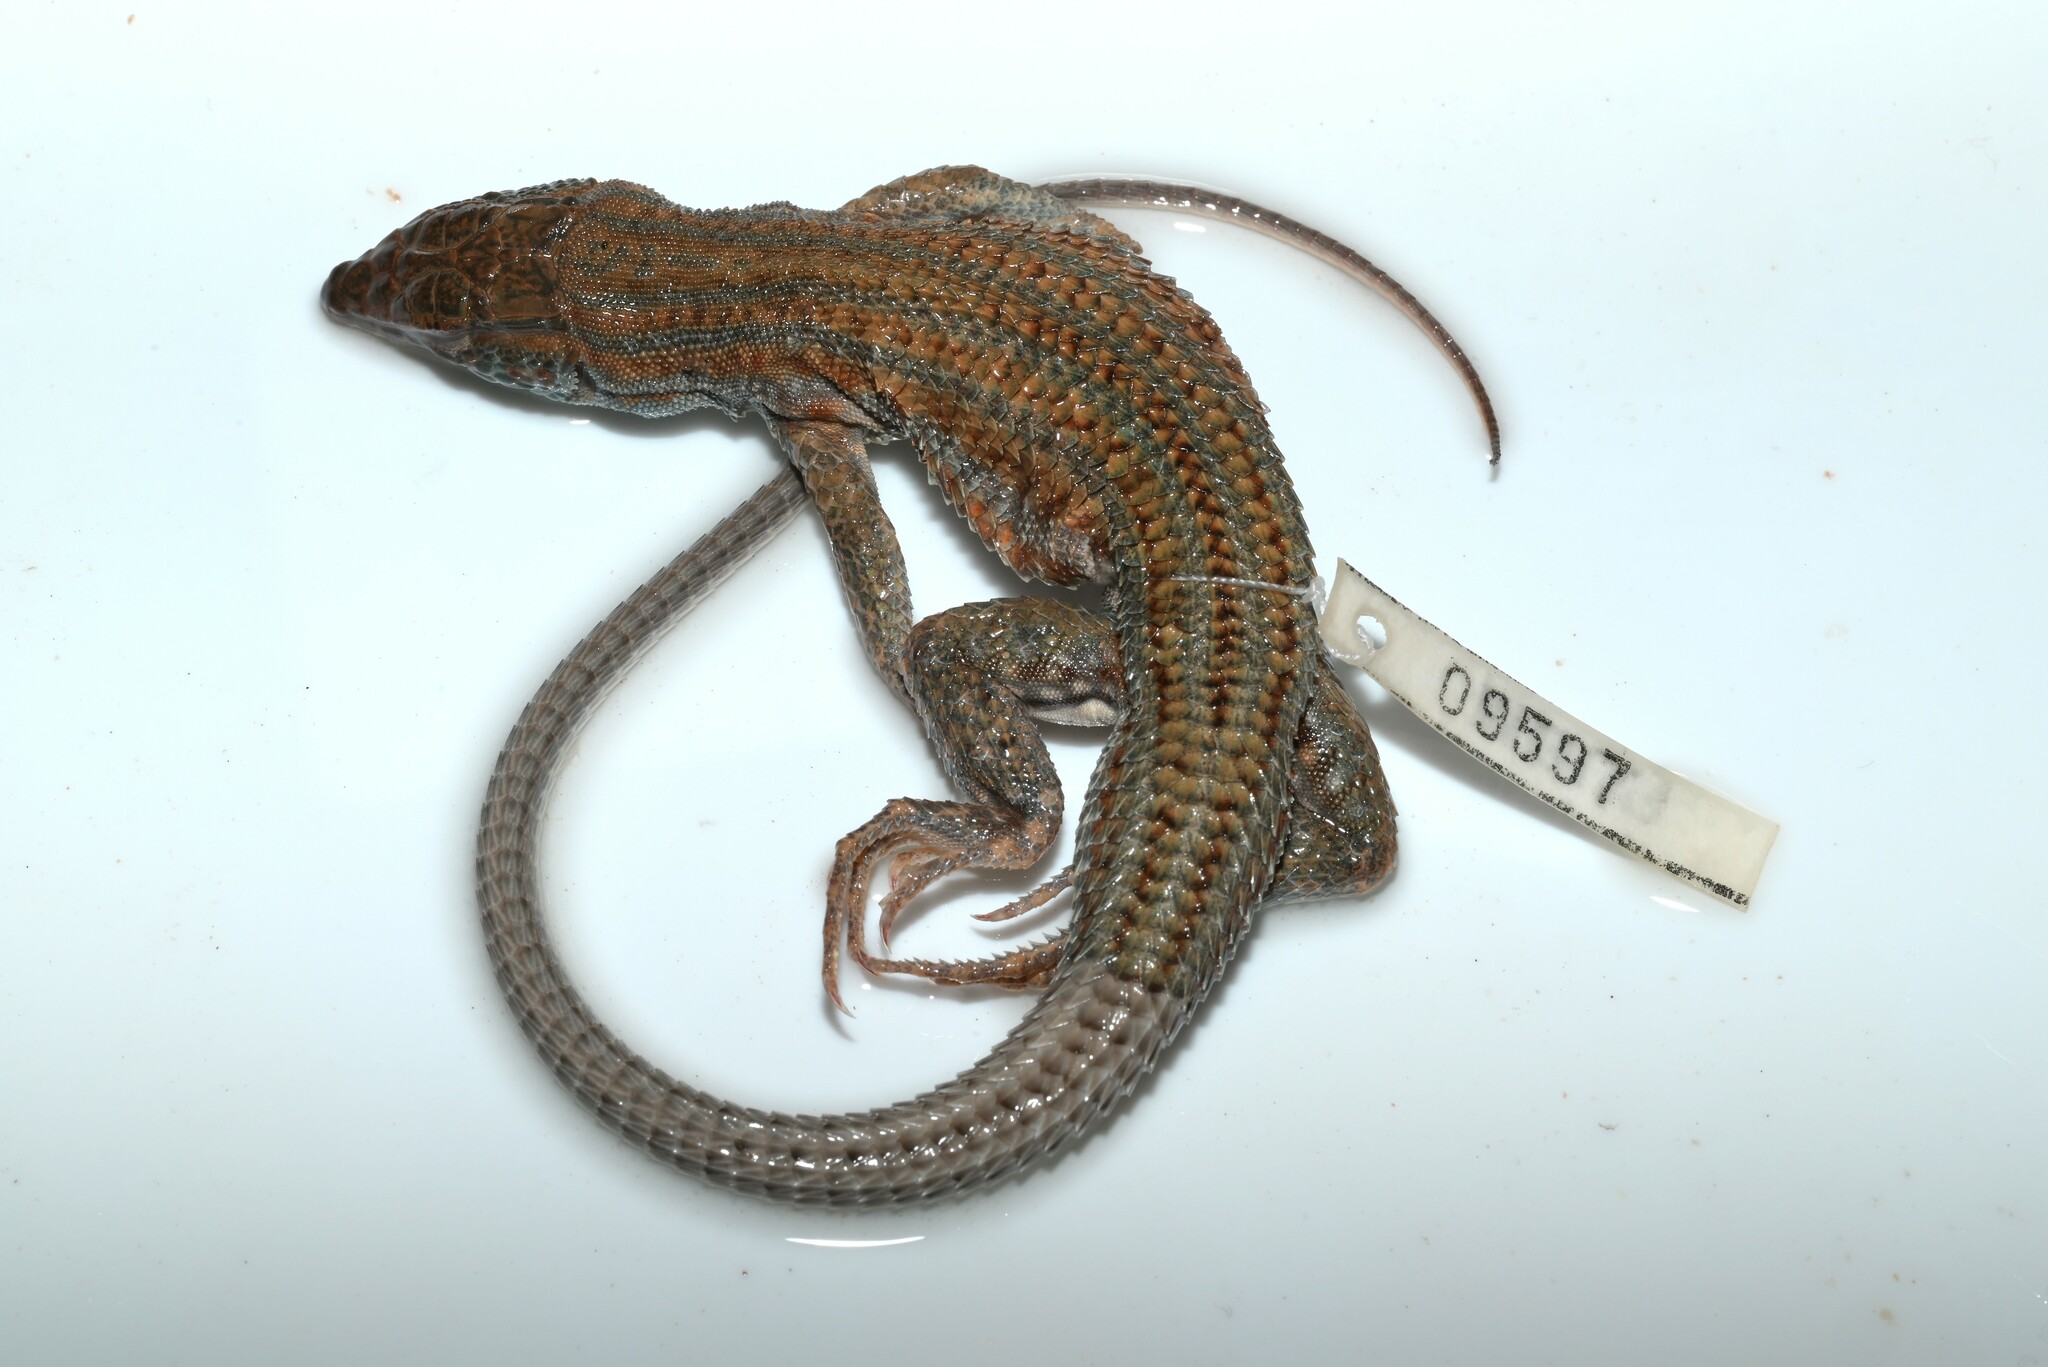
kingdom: Animalia
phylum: Chordata
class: Squamata
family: Lacertidae
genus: Acanthodactylus
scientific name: Acanthodactylus boskianus
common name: Bosc’s fringe-toed lizard
